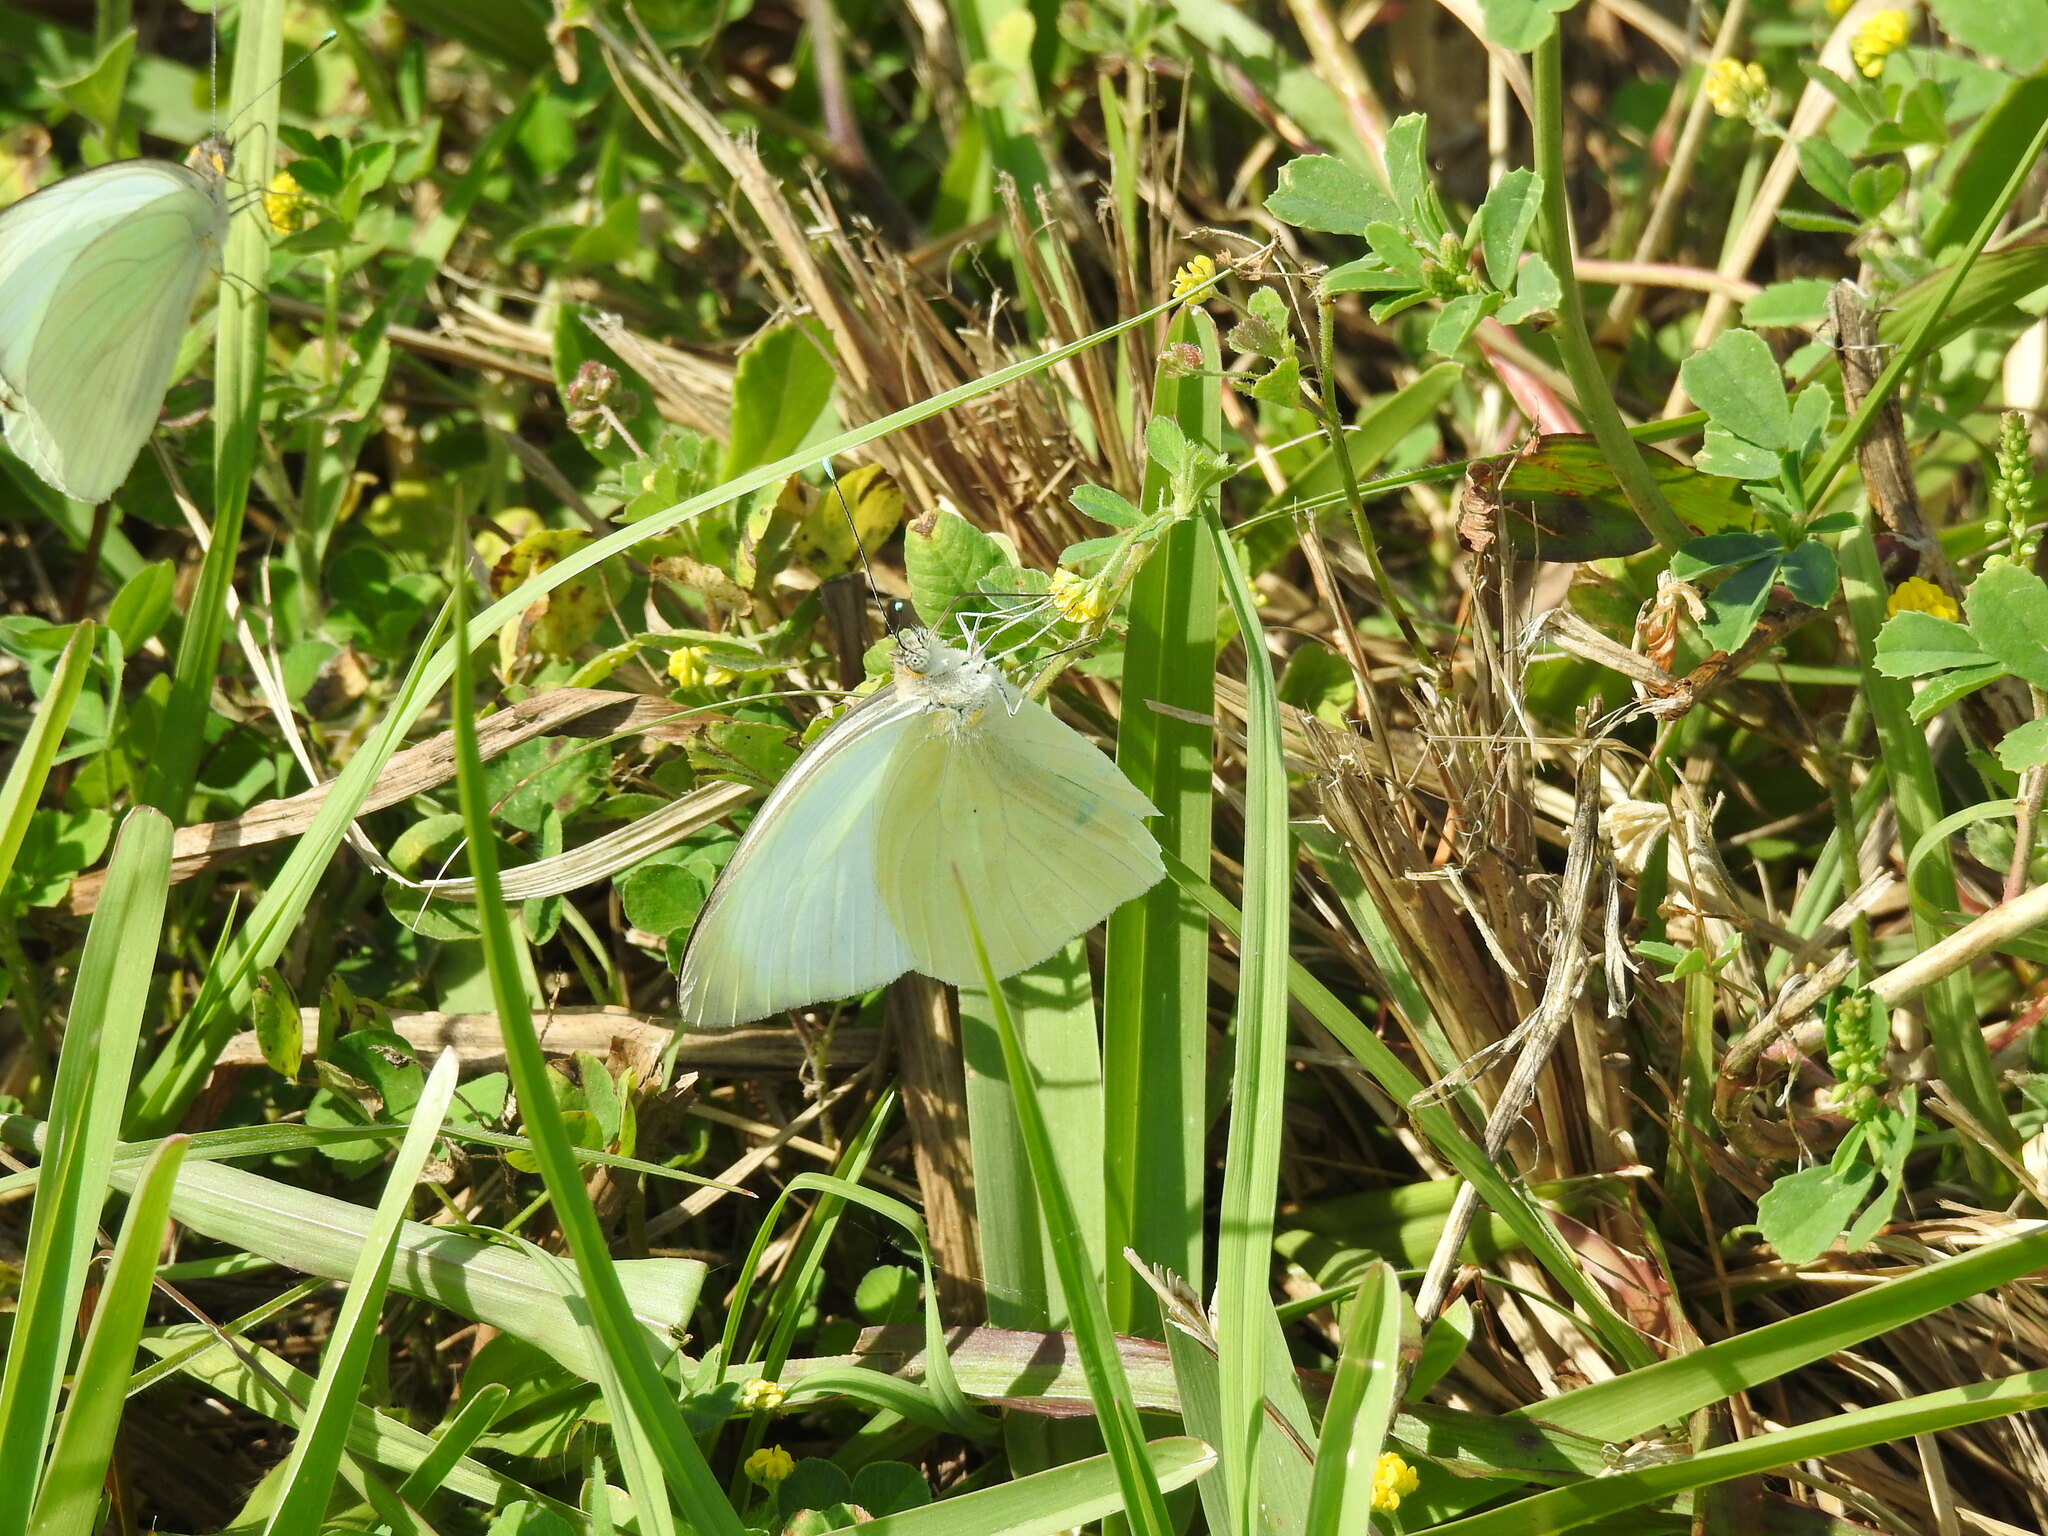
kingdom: Animalia
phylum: Arthropoda
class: Insecta
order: Lepidoptera
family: Pieridae
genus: Ascia
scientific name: Ascia monuste
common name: Great southern white
